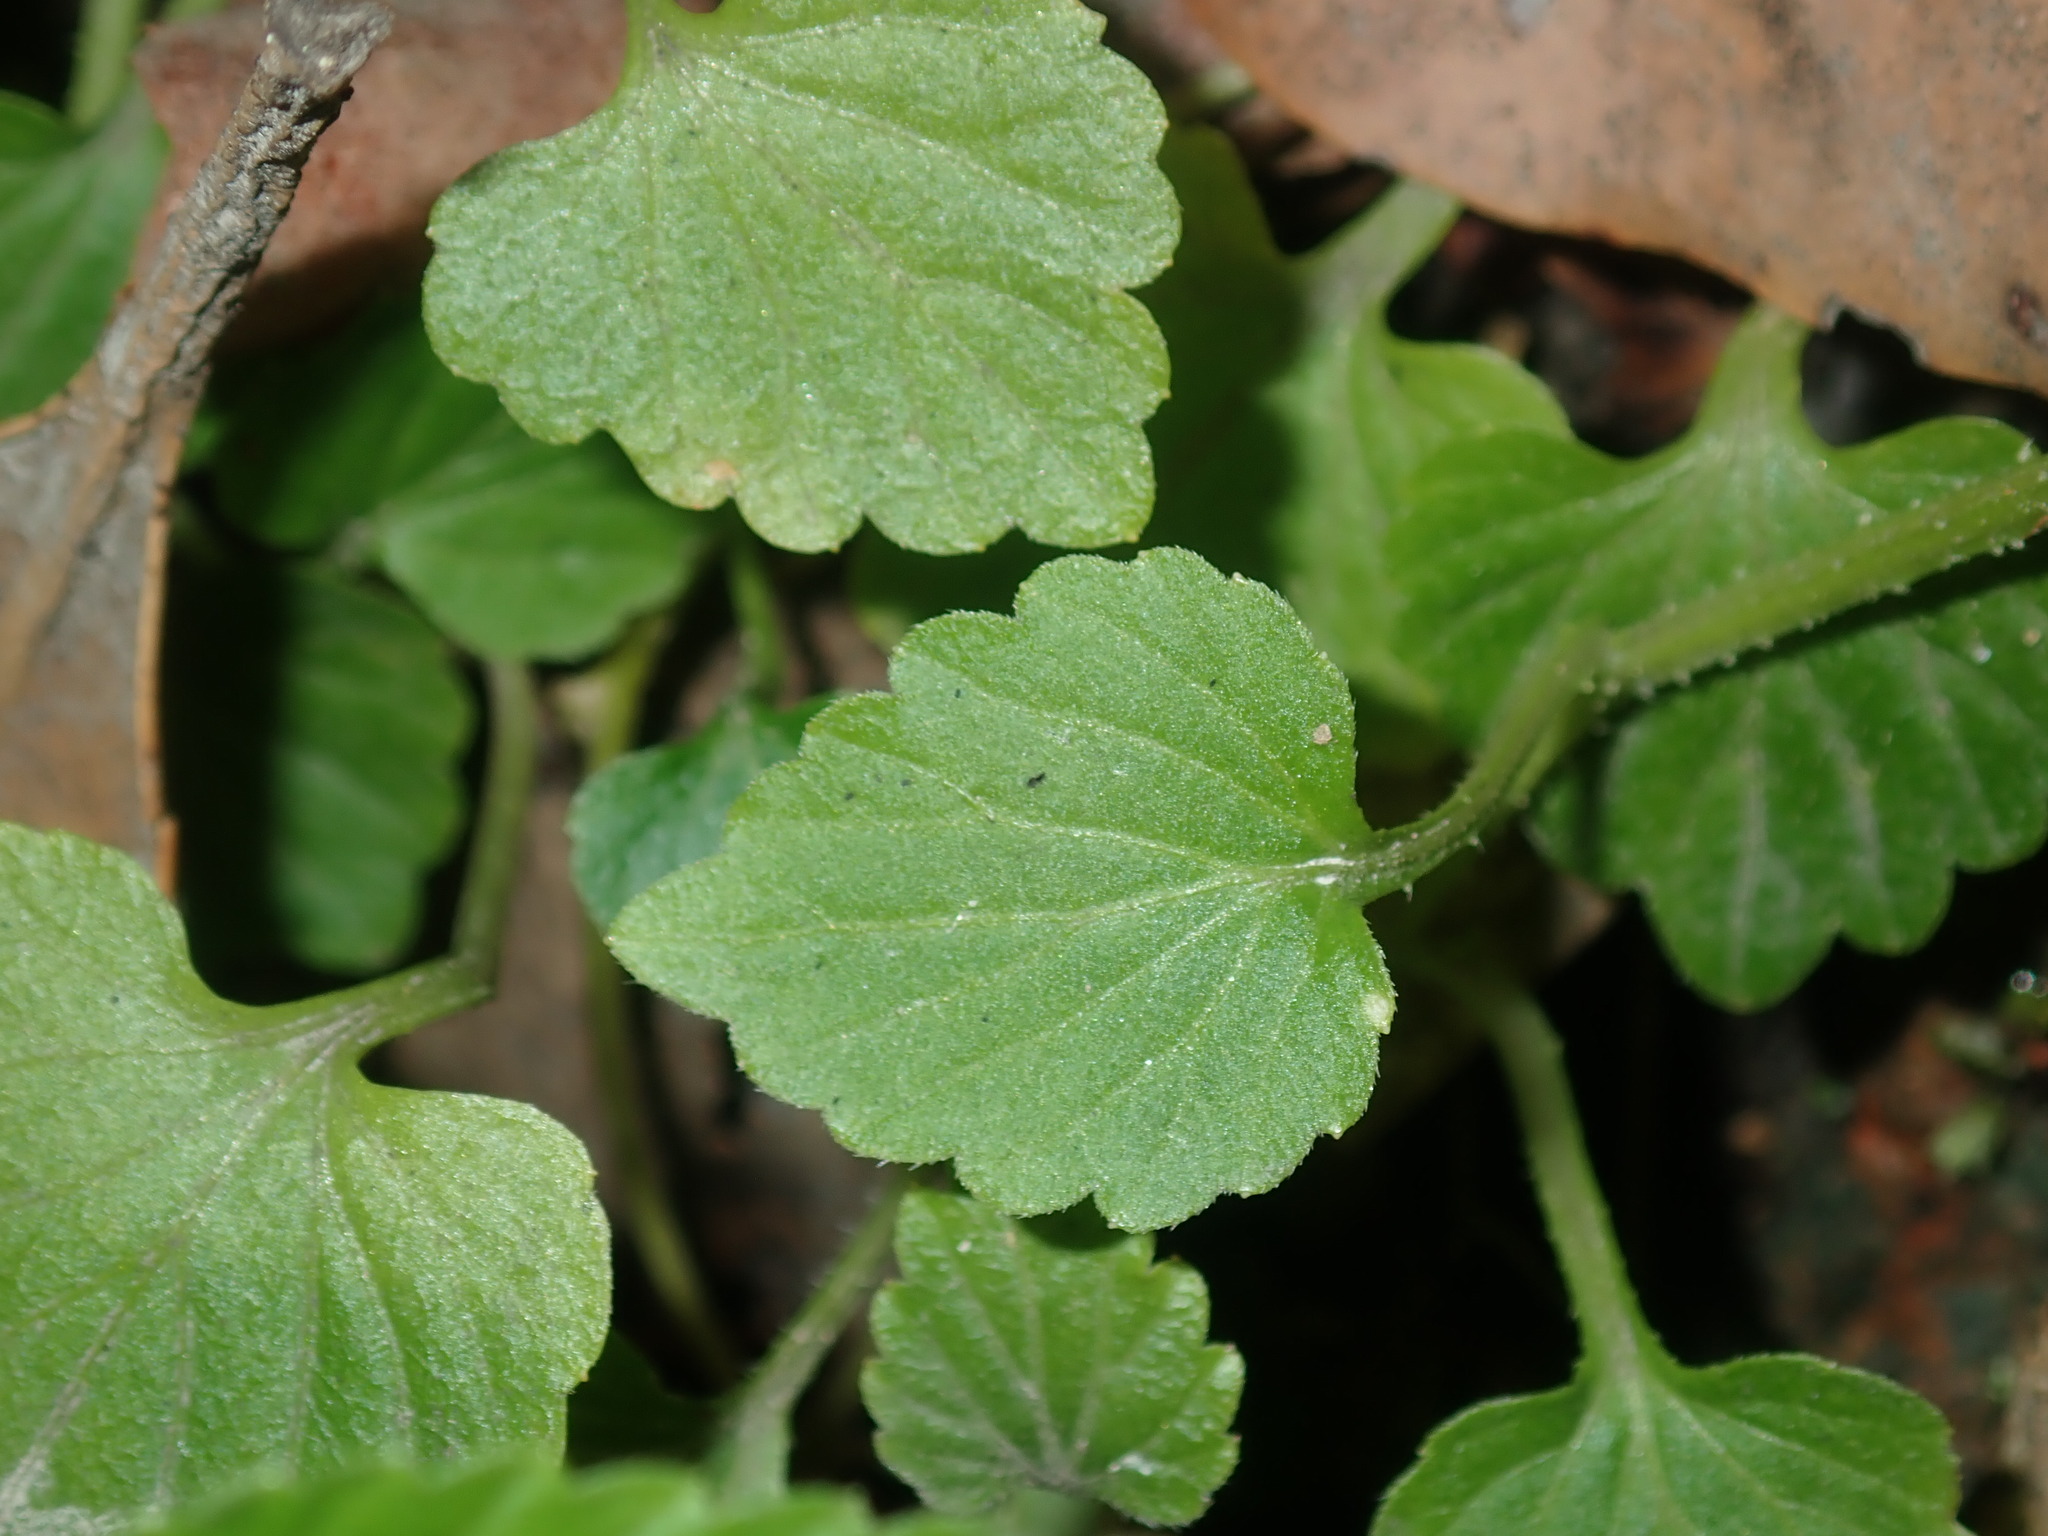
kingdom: Plantae
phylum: Tracheophyta
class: Magnoliopsida
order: Asterales
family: Campanulaceae
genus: Lobelia
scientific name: Lobelia trigonocaulis
